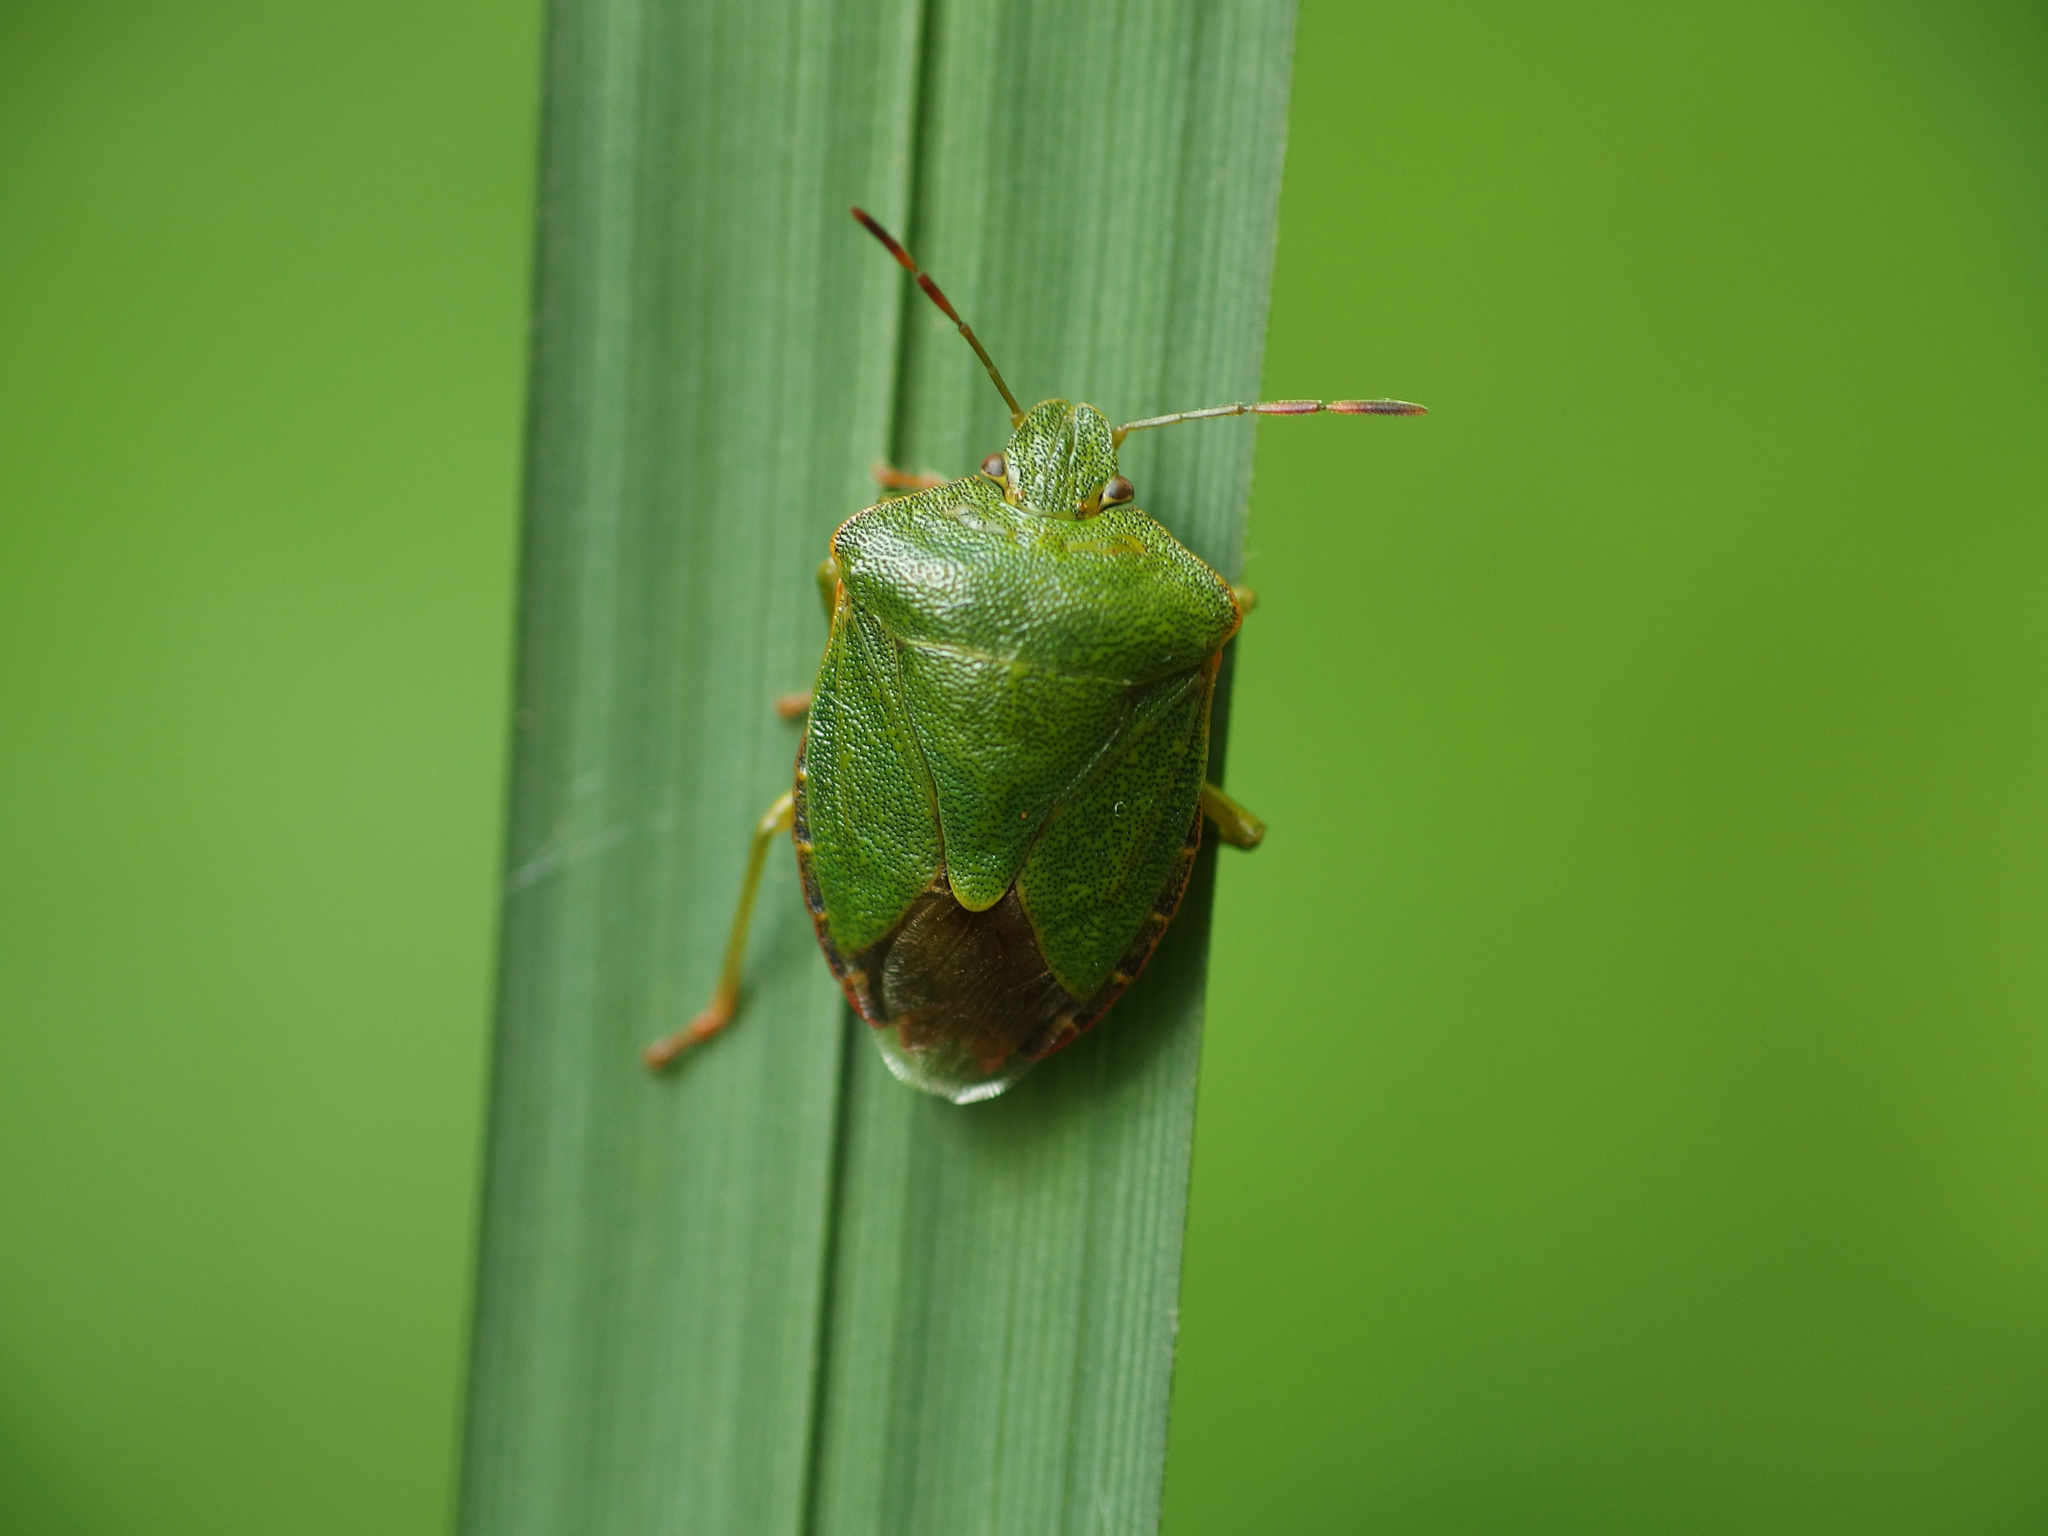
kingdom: Animalia
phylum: Arthropoda
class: Insecta
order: Hemiptera
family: Pentatomidae
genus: Palomena
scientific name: Palomena prasina
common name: Green shieldbug
